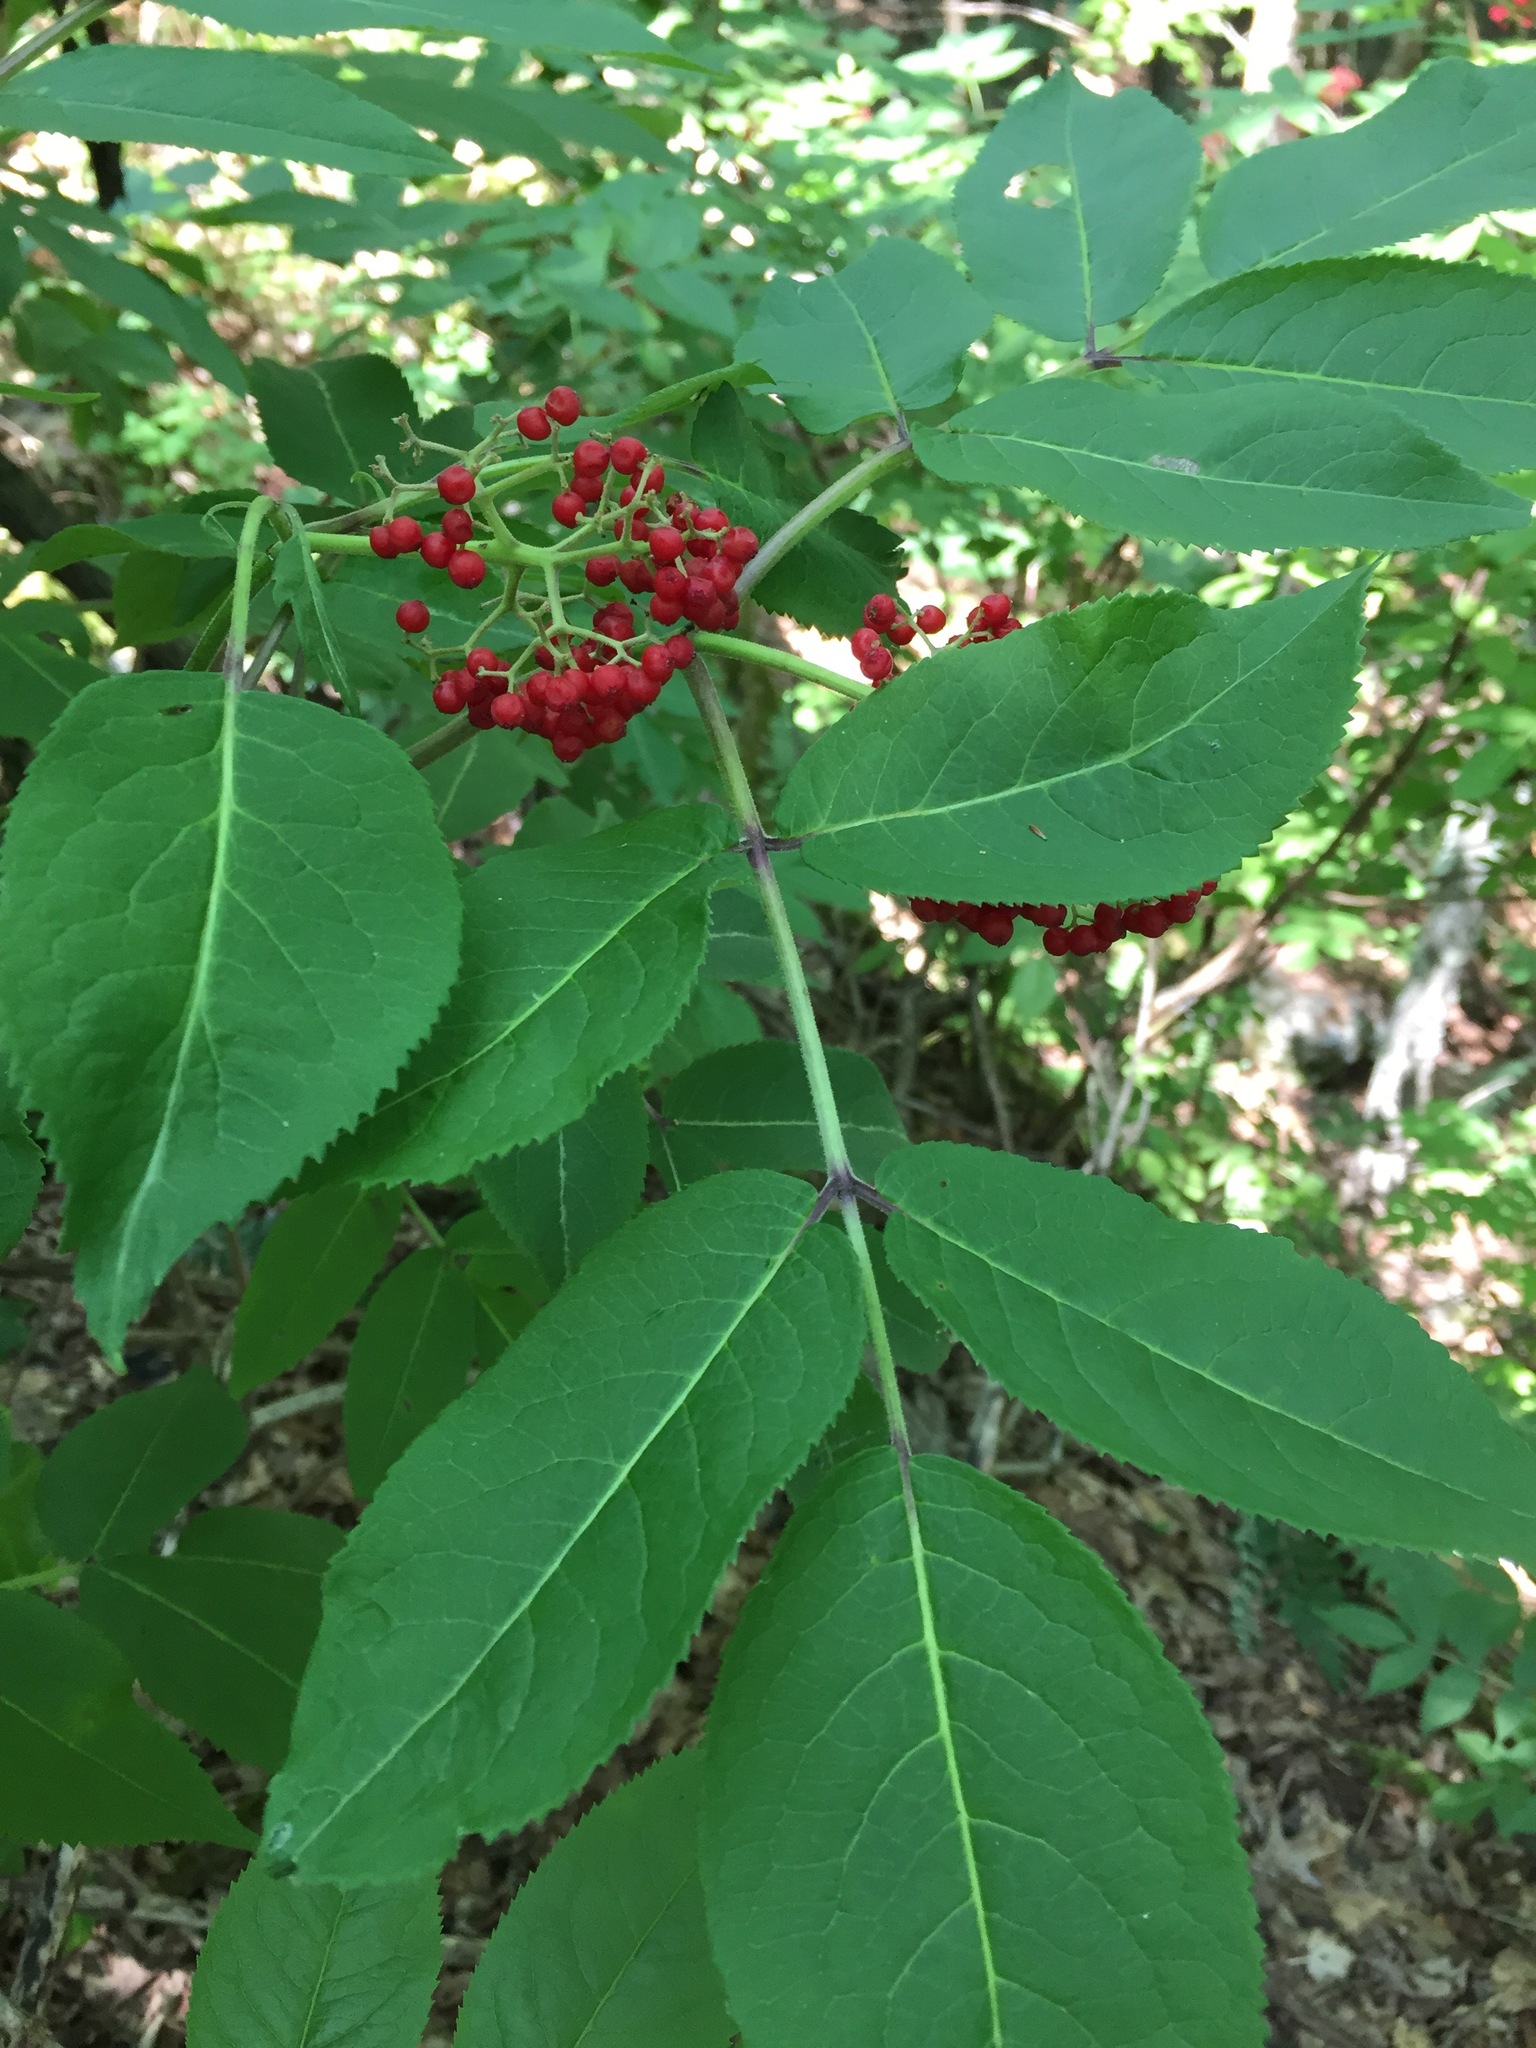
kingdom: Plantae
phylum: Tracheophyta
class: Magnoliopsida
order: Dipsacales
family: Viburnaceae
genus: Sambucus
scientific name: Sambucus racemosa
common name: Red-berried elder
